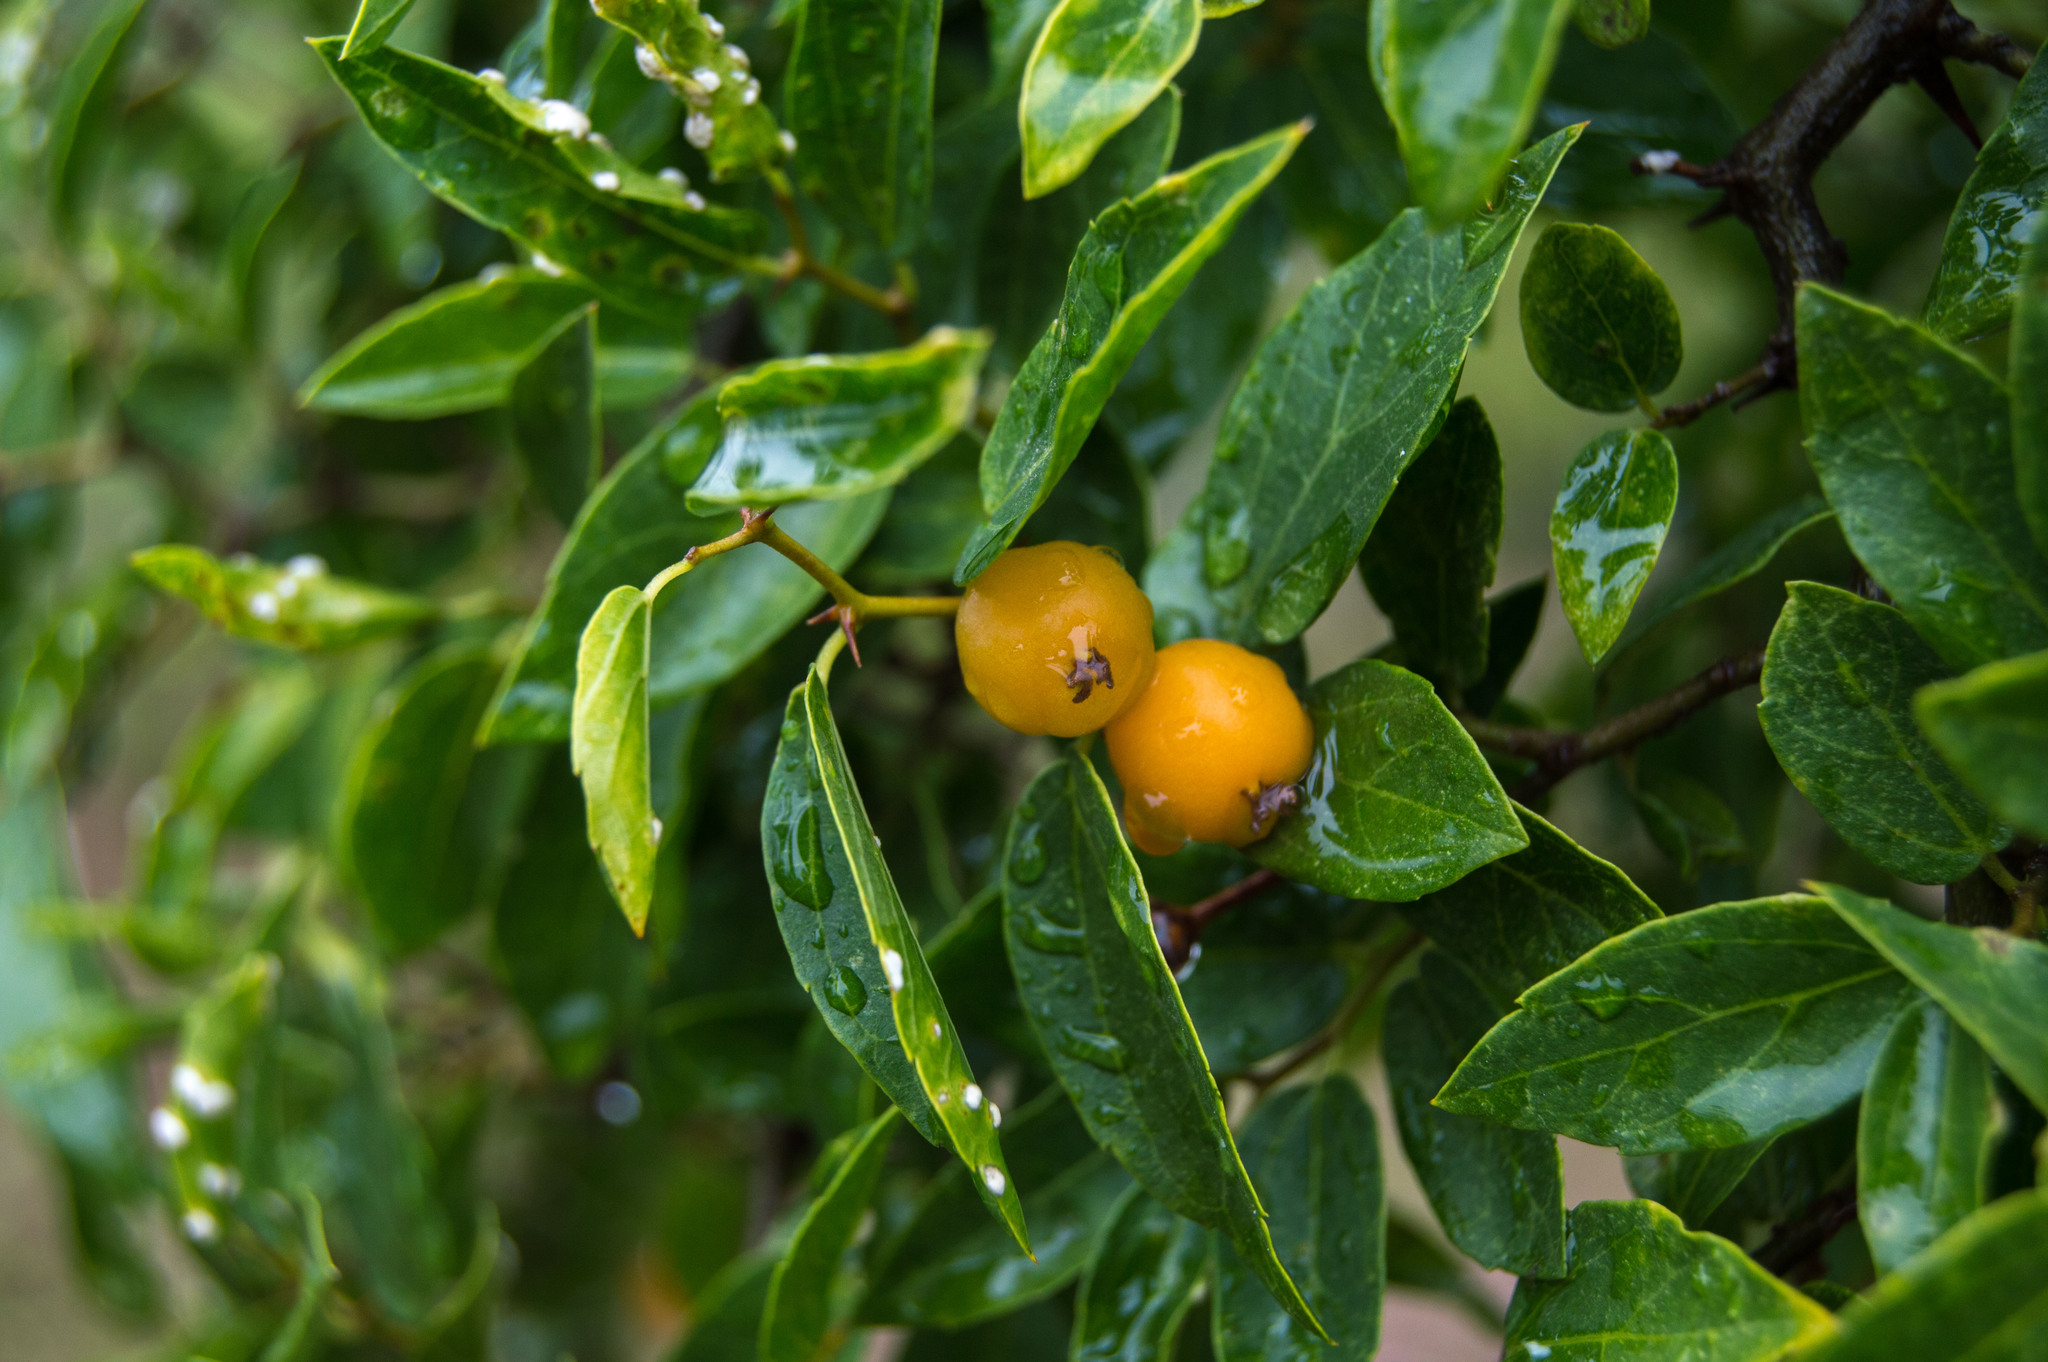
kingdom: Plantae
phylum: Tracheophyta
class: Magnoliopsida
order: Rosales
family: Cannabaceae
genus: Celtis
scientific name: Celtis tala
